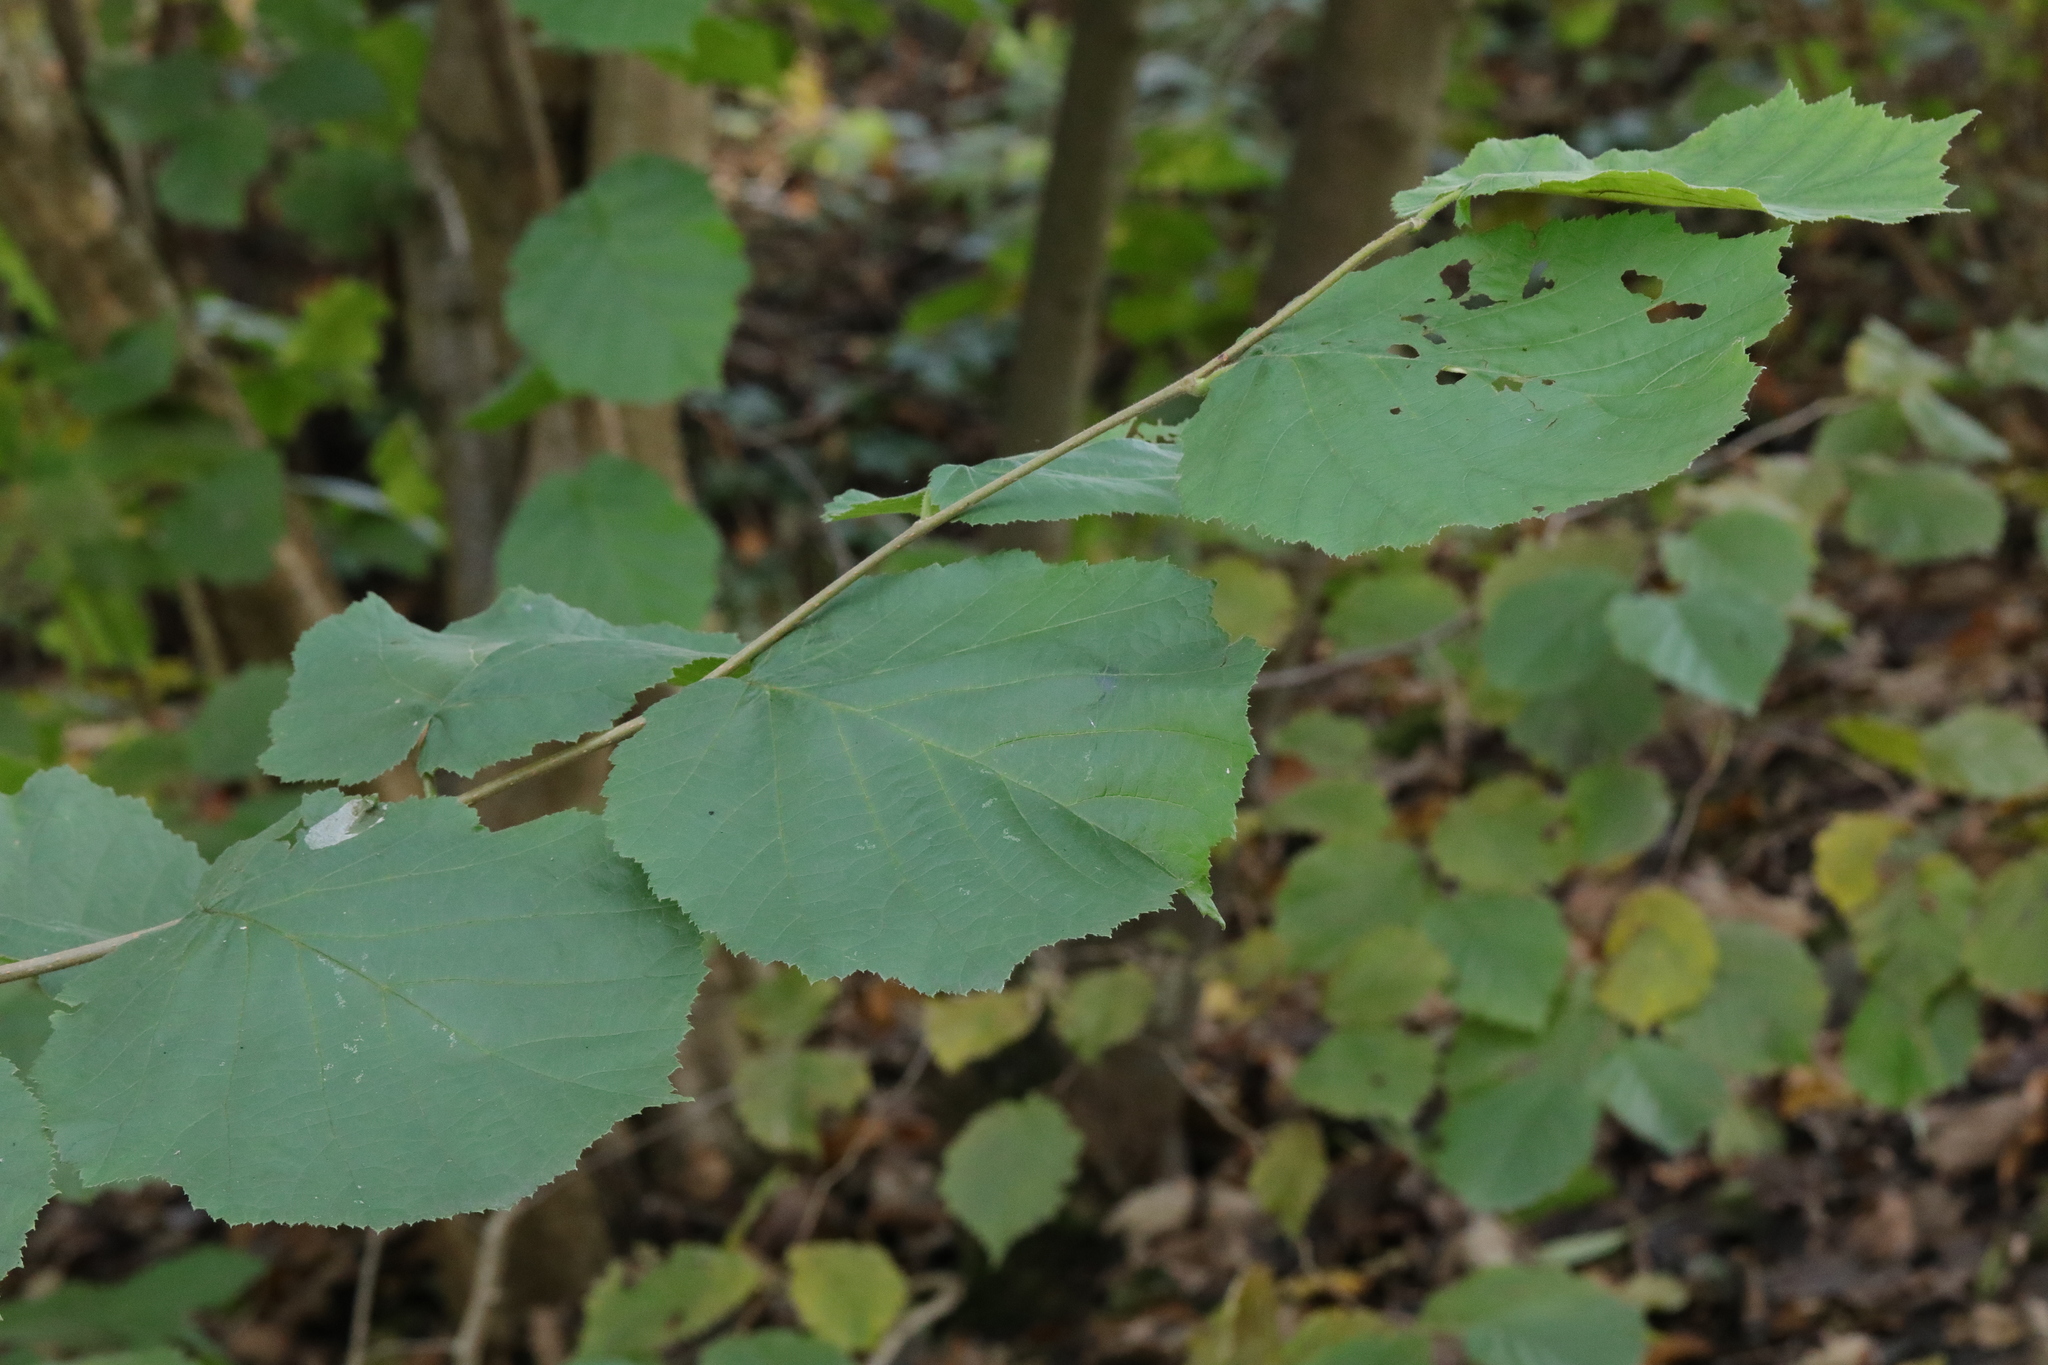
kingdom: Plantae
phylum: Tracheophyta
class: Magnoliopsida
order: Fagales
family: Betulaceae
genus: Corylus
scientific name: Corylus avellana
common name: European hazel
